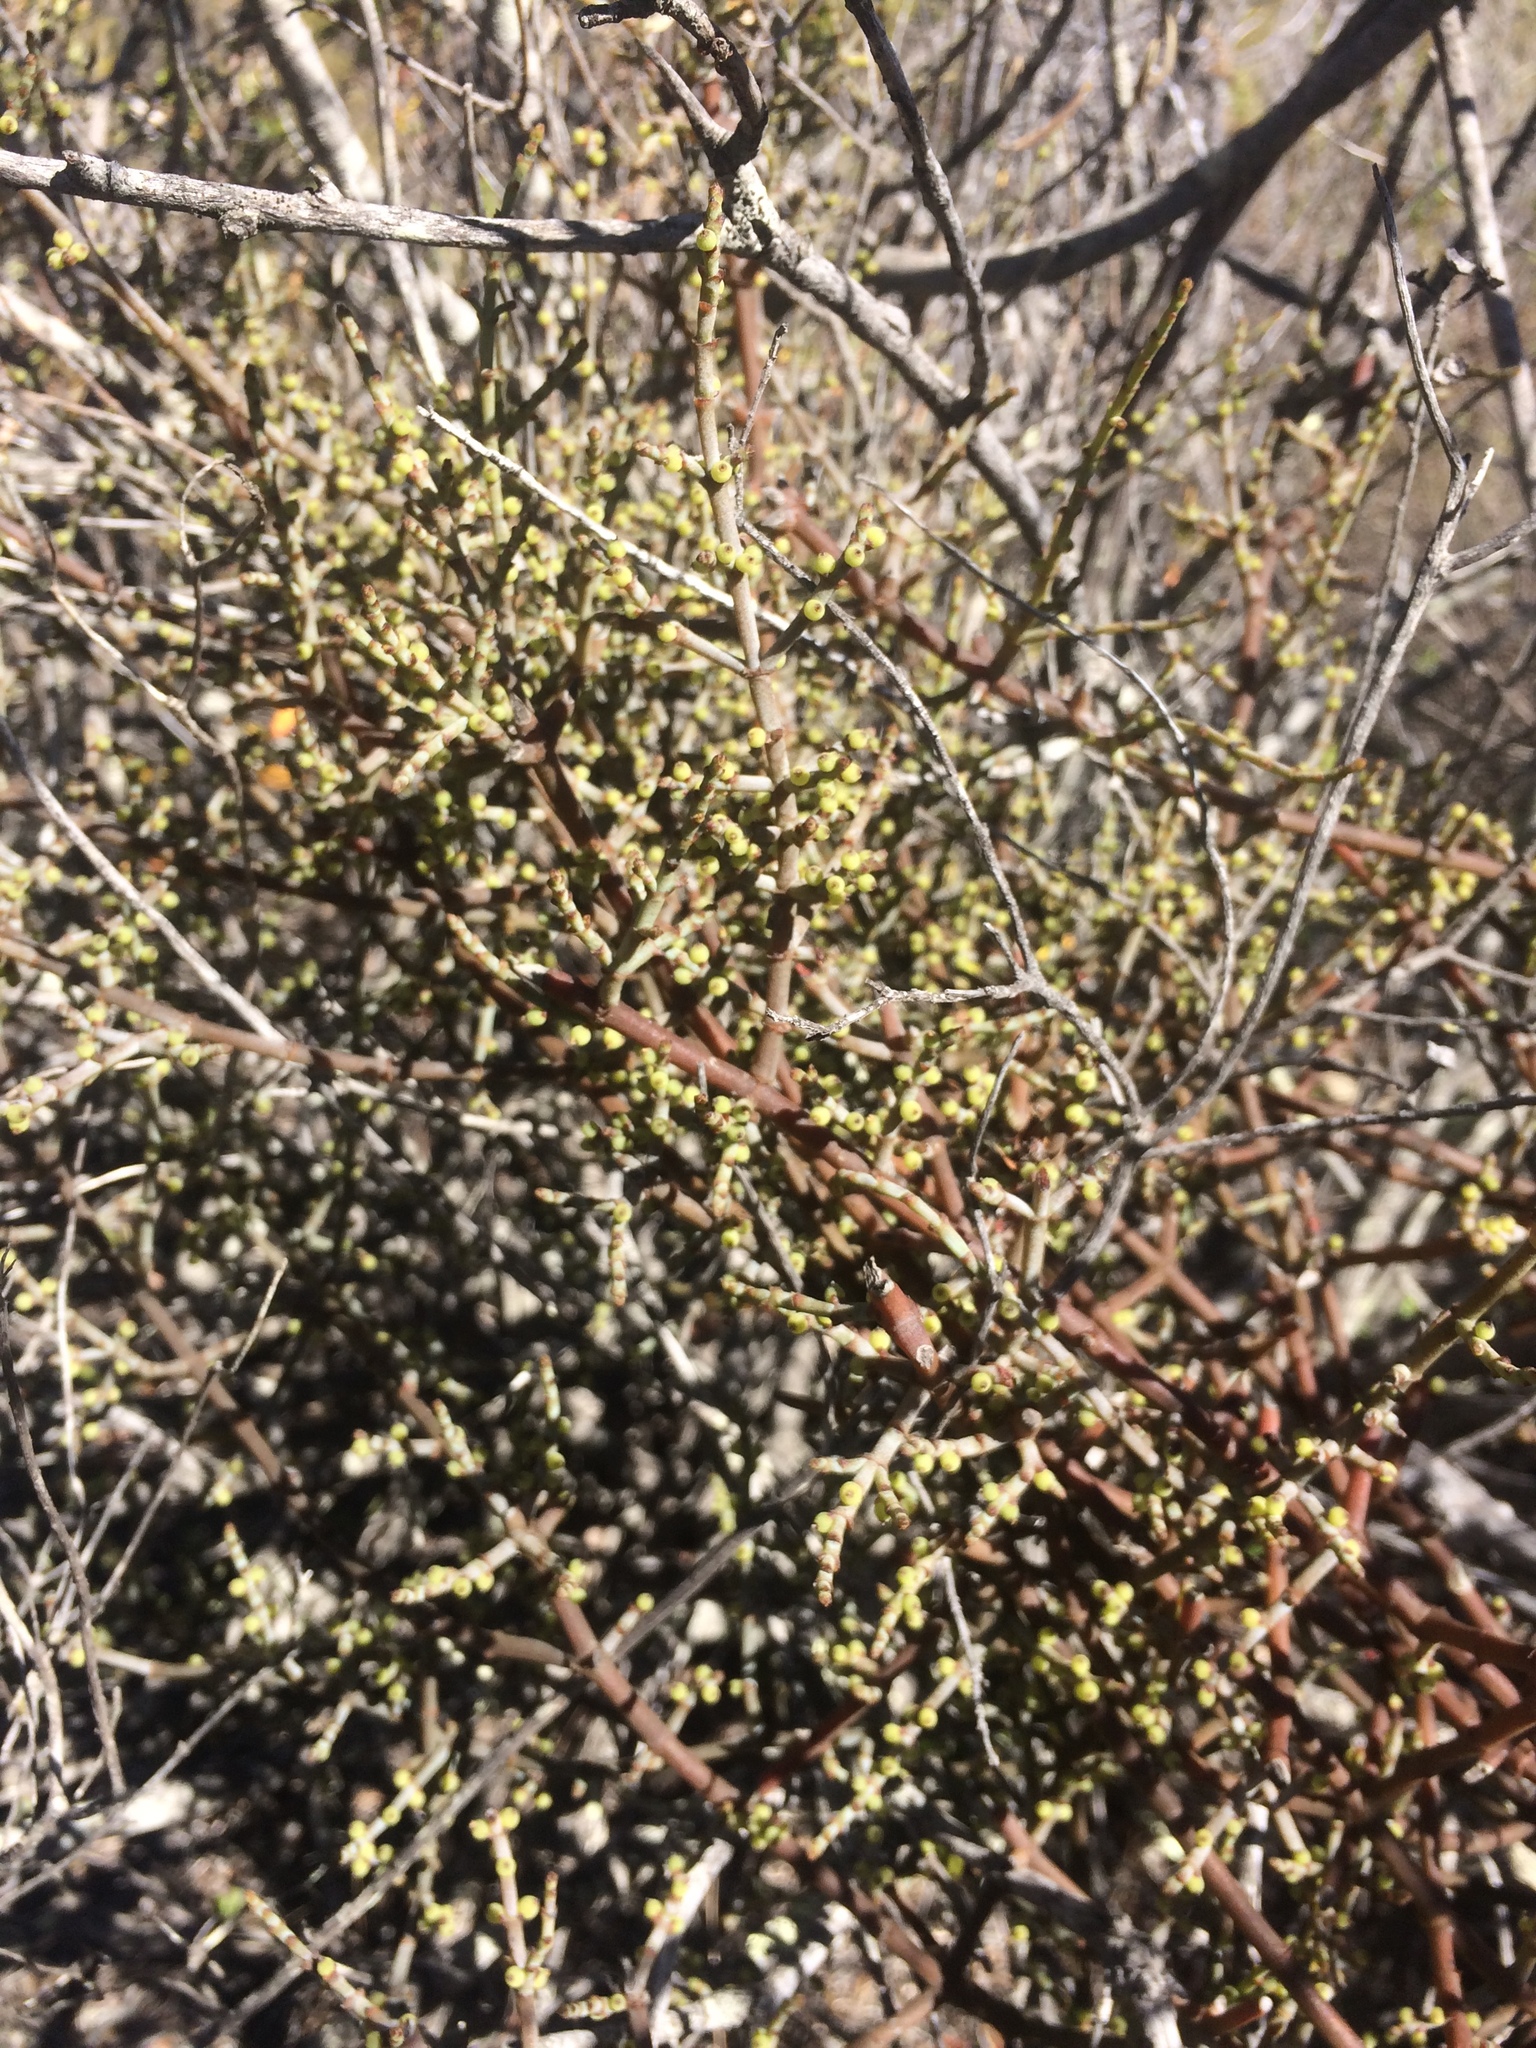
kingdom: Plantae
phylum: Tracheophyta
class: Magnoliopsida
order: Santalales
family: Viscaceae
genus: Viscum
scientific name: Viscum capense
